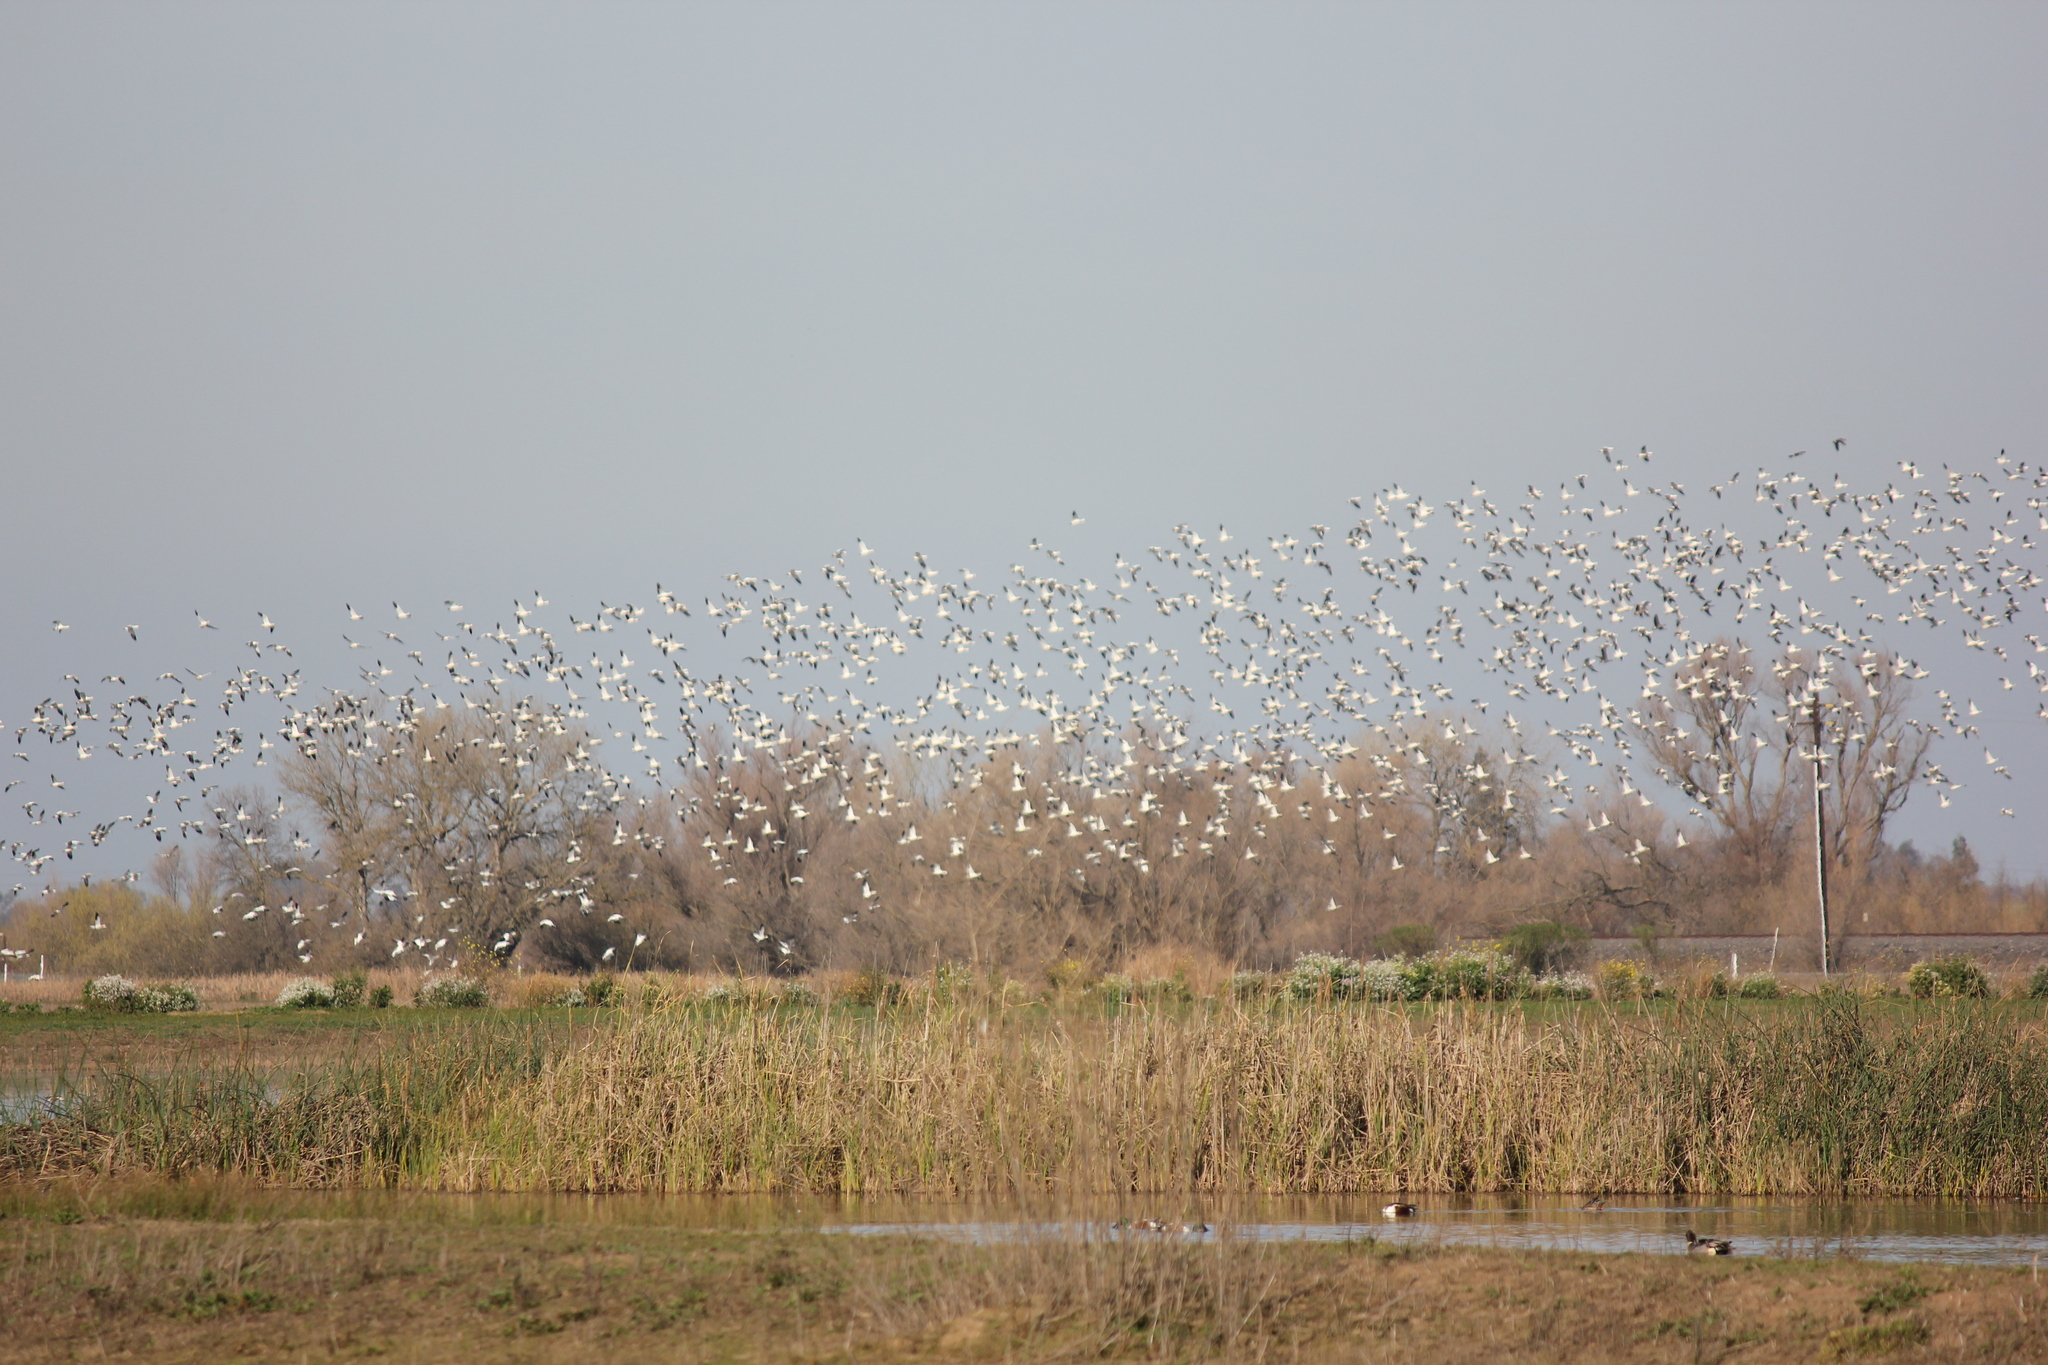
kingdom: Animalia
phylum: Chordata
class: Aves
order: Anseriformes
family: Anatidae
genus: Anser
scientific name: Anser caerulescens
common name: Snow goose
